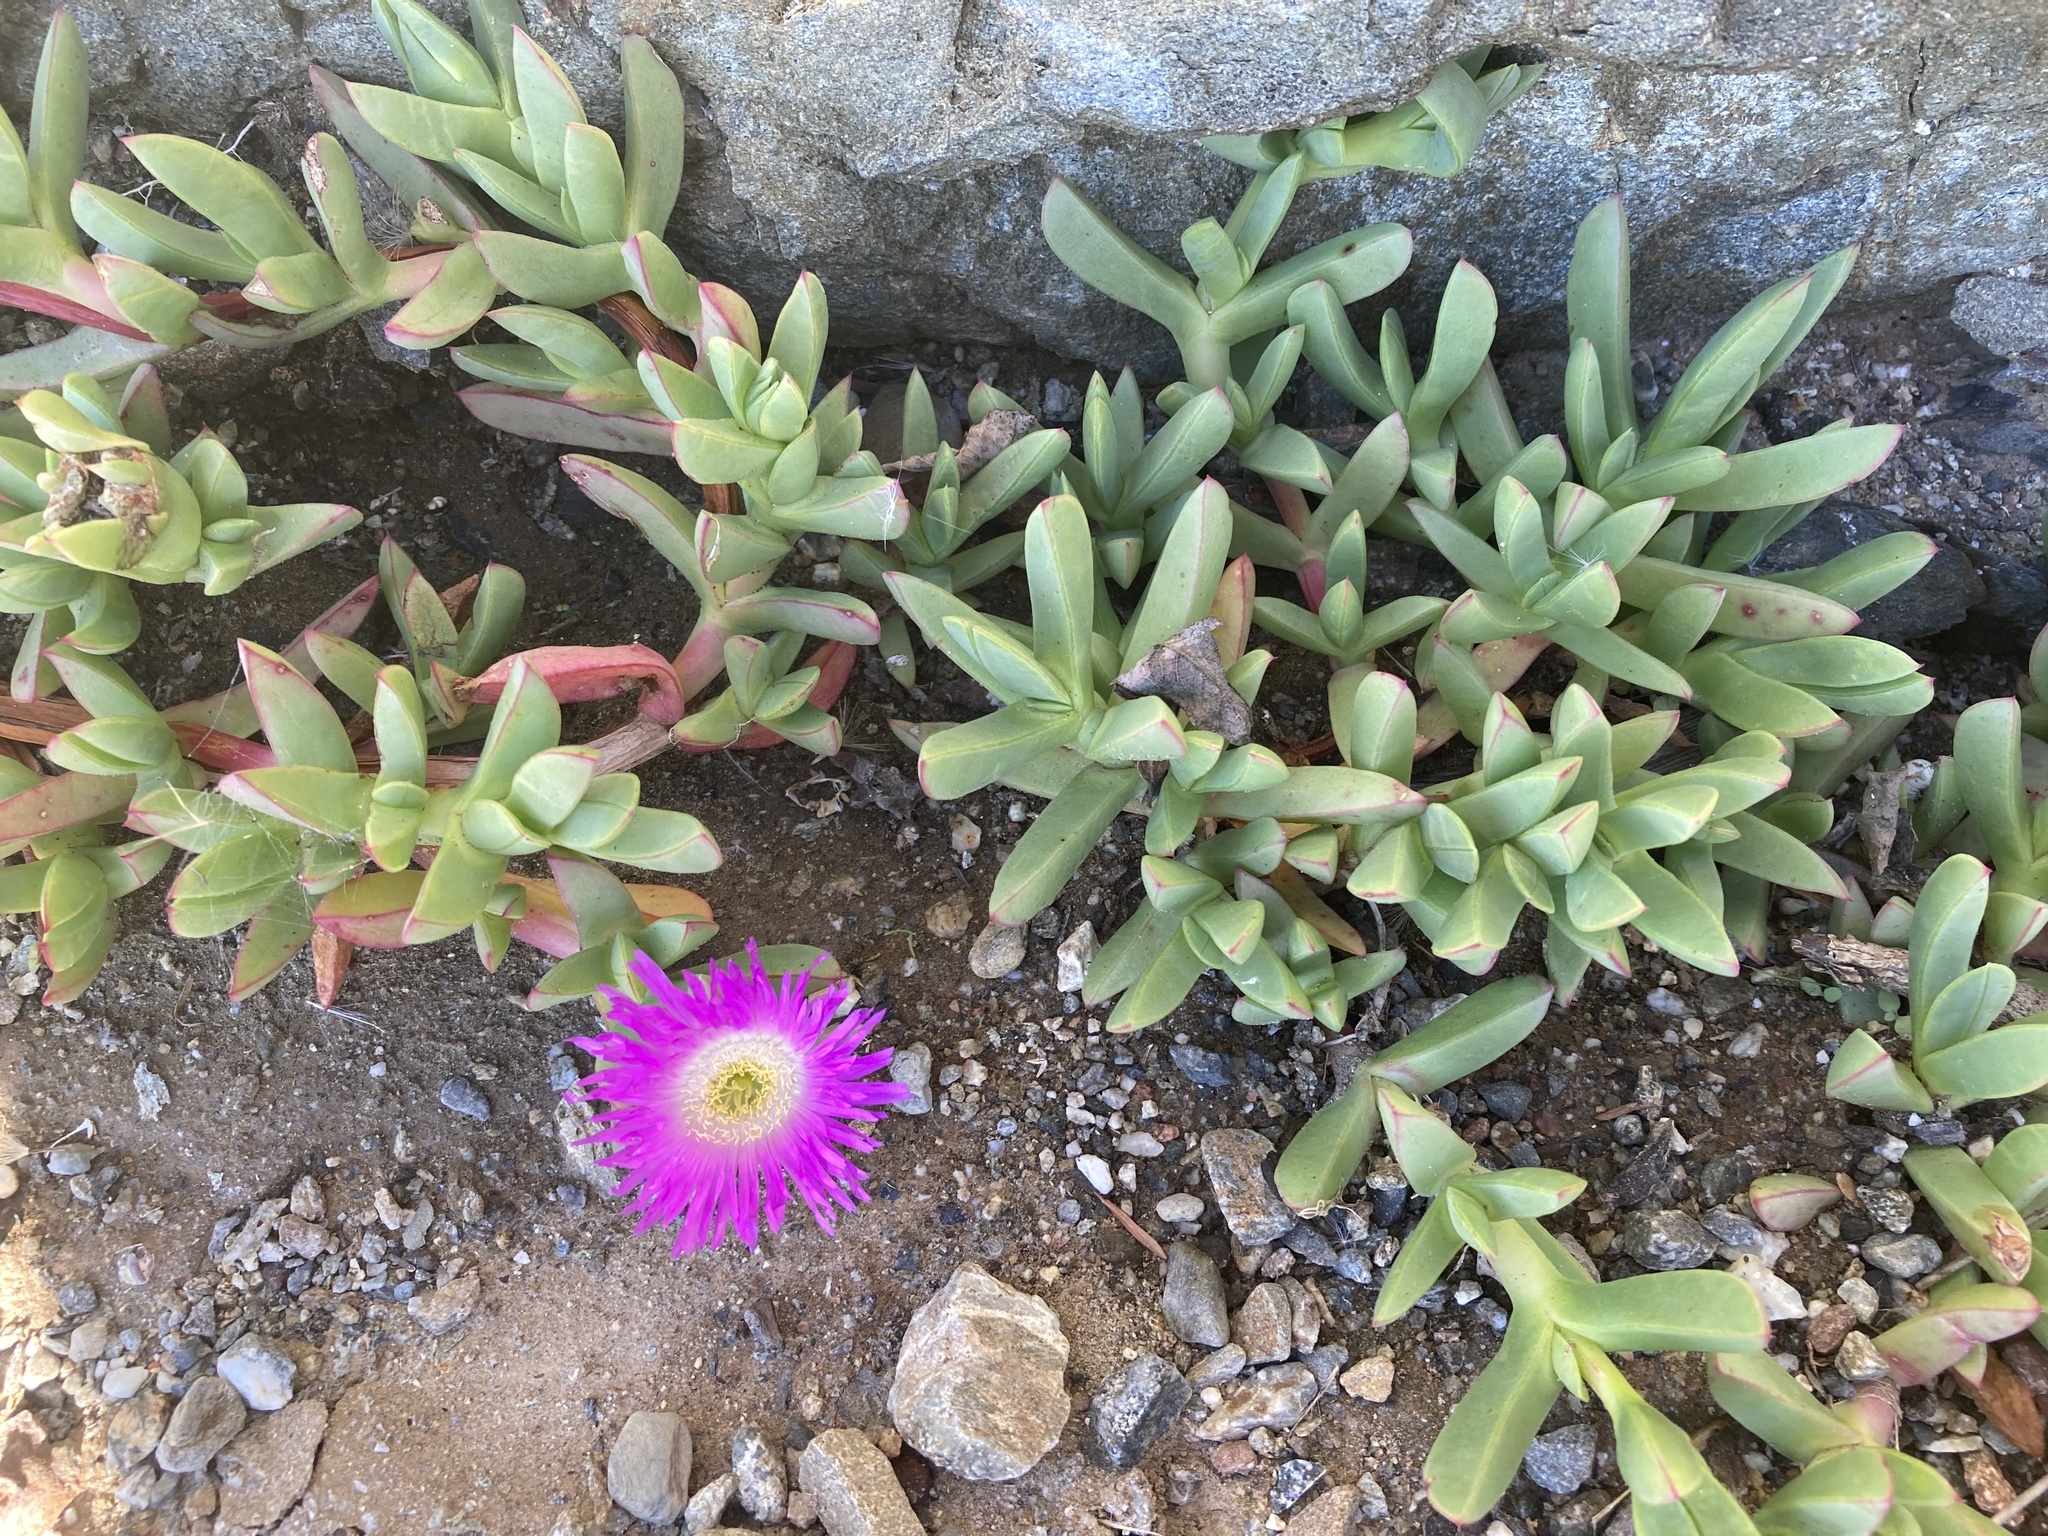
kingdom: Plantae
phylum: Tracheophyta
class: Magnoliopsida
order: Caryophyllales
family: Aizoaceae
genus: Carpobrotus
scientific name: Carpobrotus chilensis
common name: Sea fig
